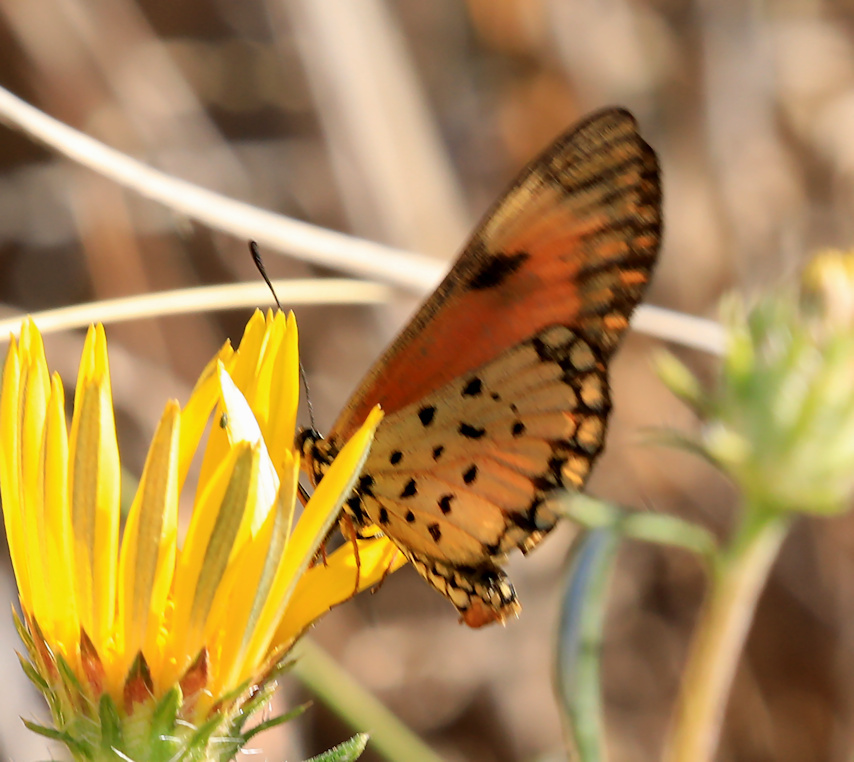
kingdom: Animalia
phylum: Arthropoda
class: Insecta
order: Lepidoptera
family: Nymphalidae
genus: Acraea
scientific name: Acraea Telchinia serena
